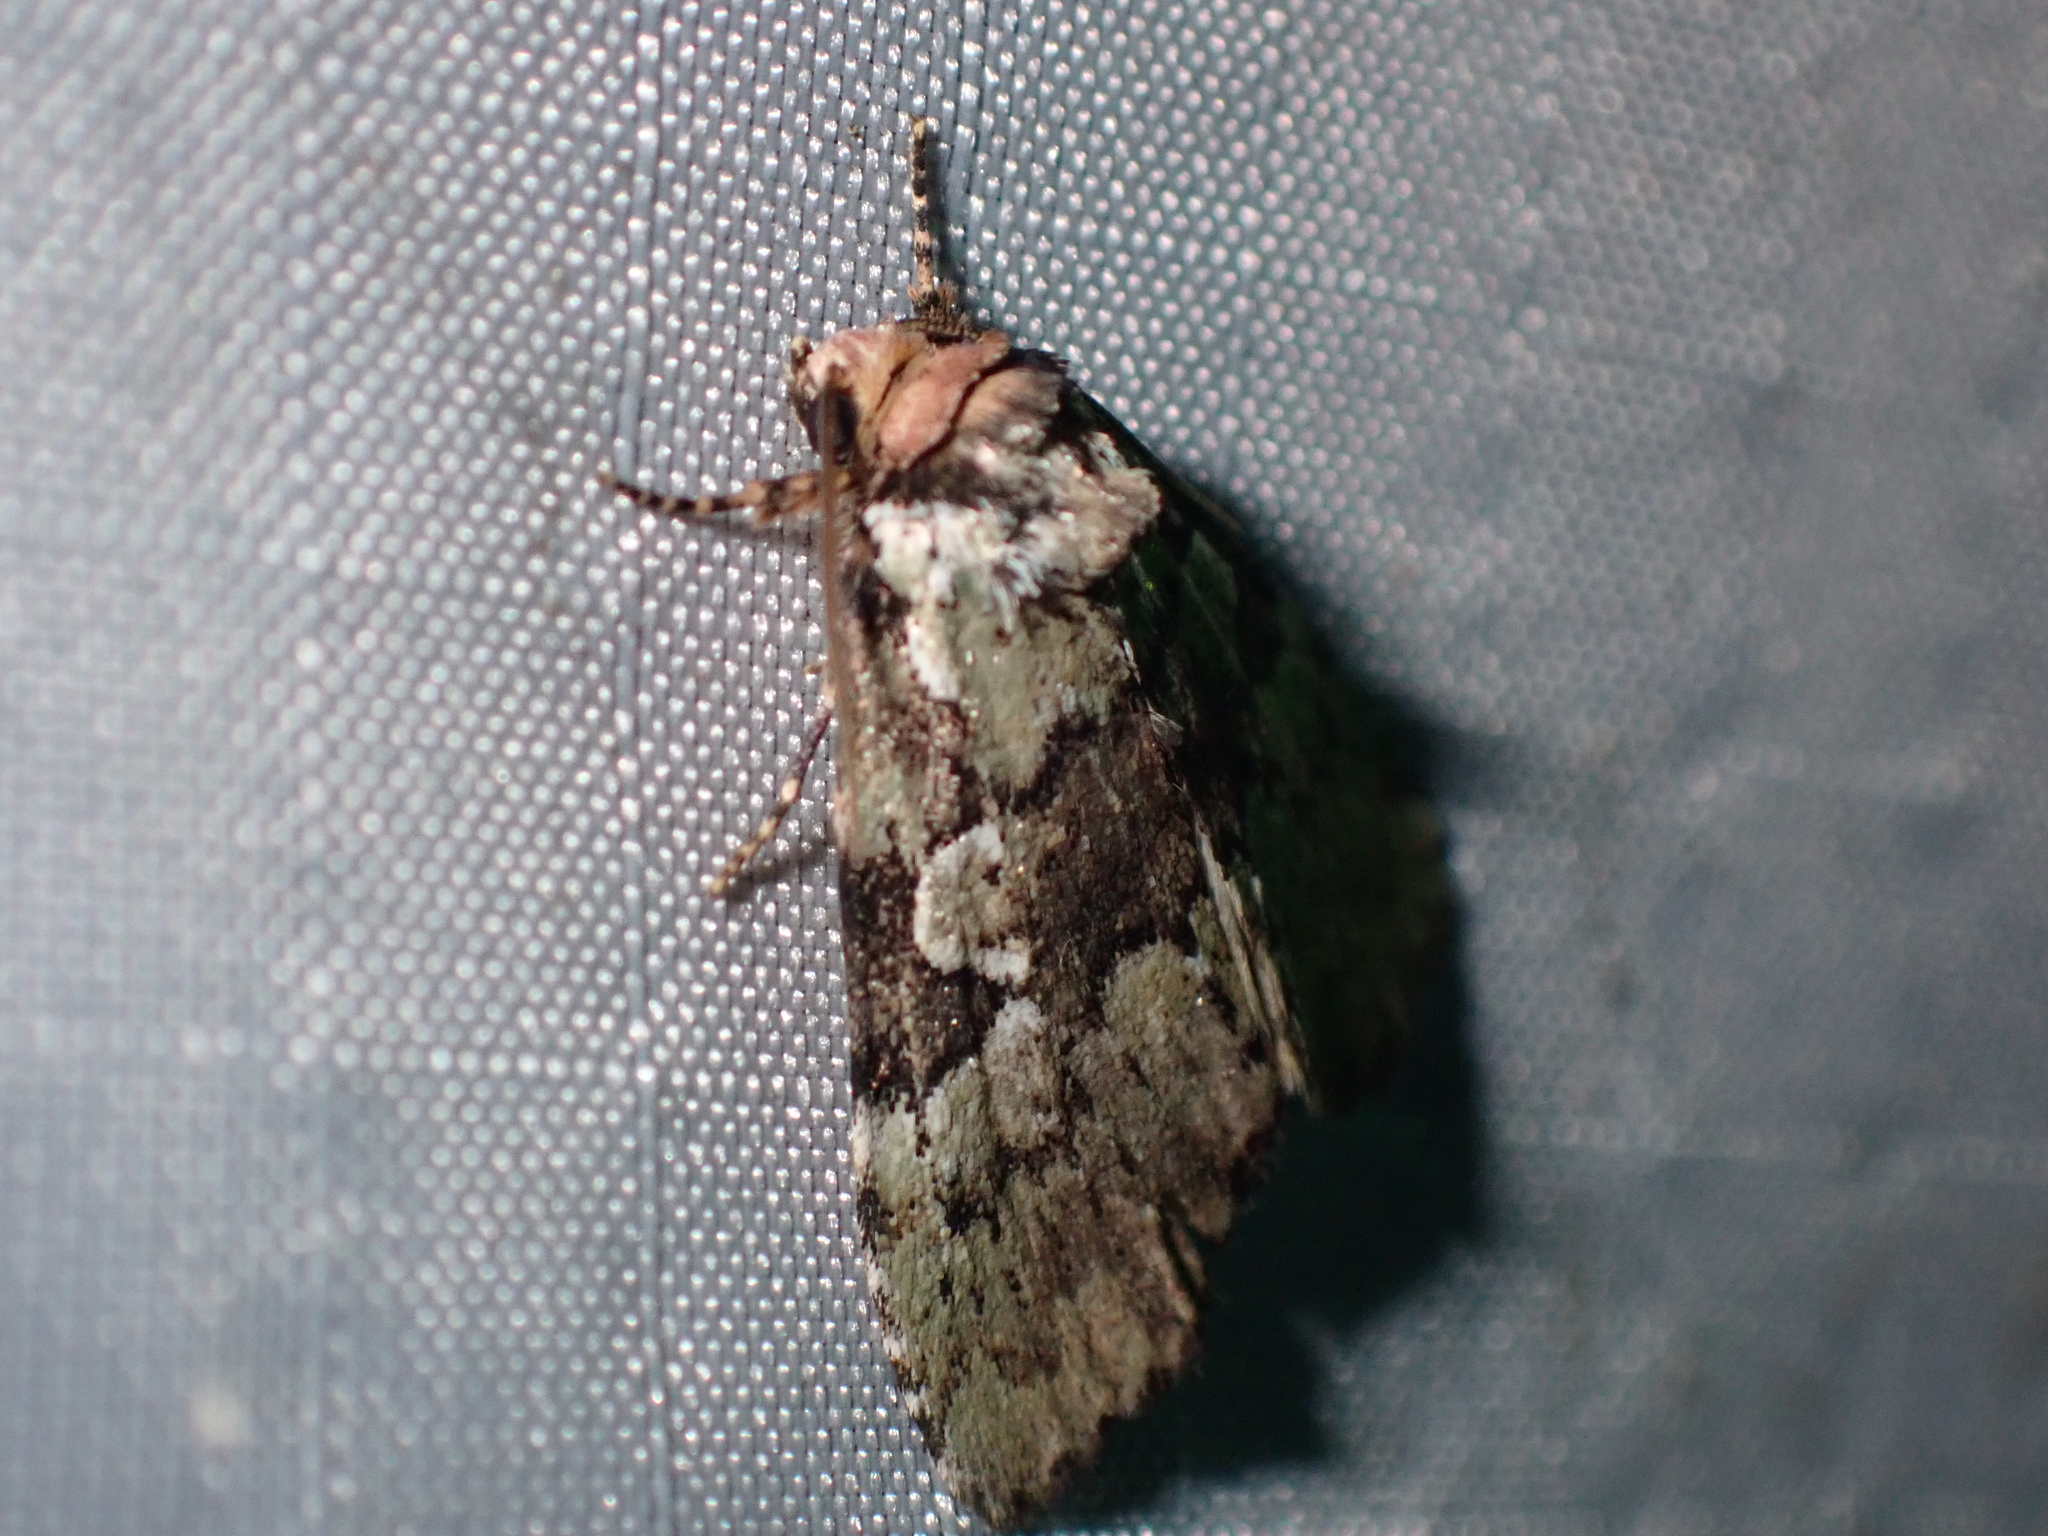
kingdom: Animalia
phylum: Arthropoda
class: Insecta
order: Lepidoptera
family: Noctuidae
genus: Leuconycta
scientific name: Leuconycta lepidula
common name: Marbled-green leuconycta moth
